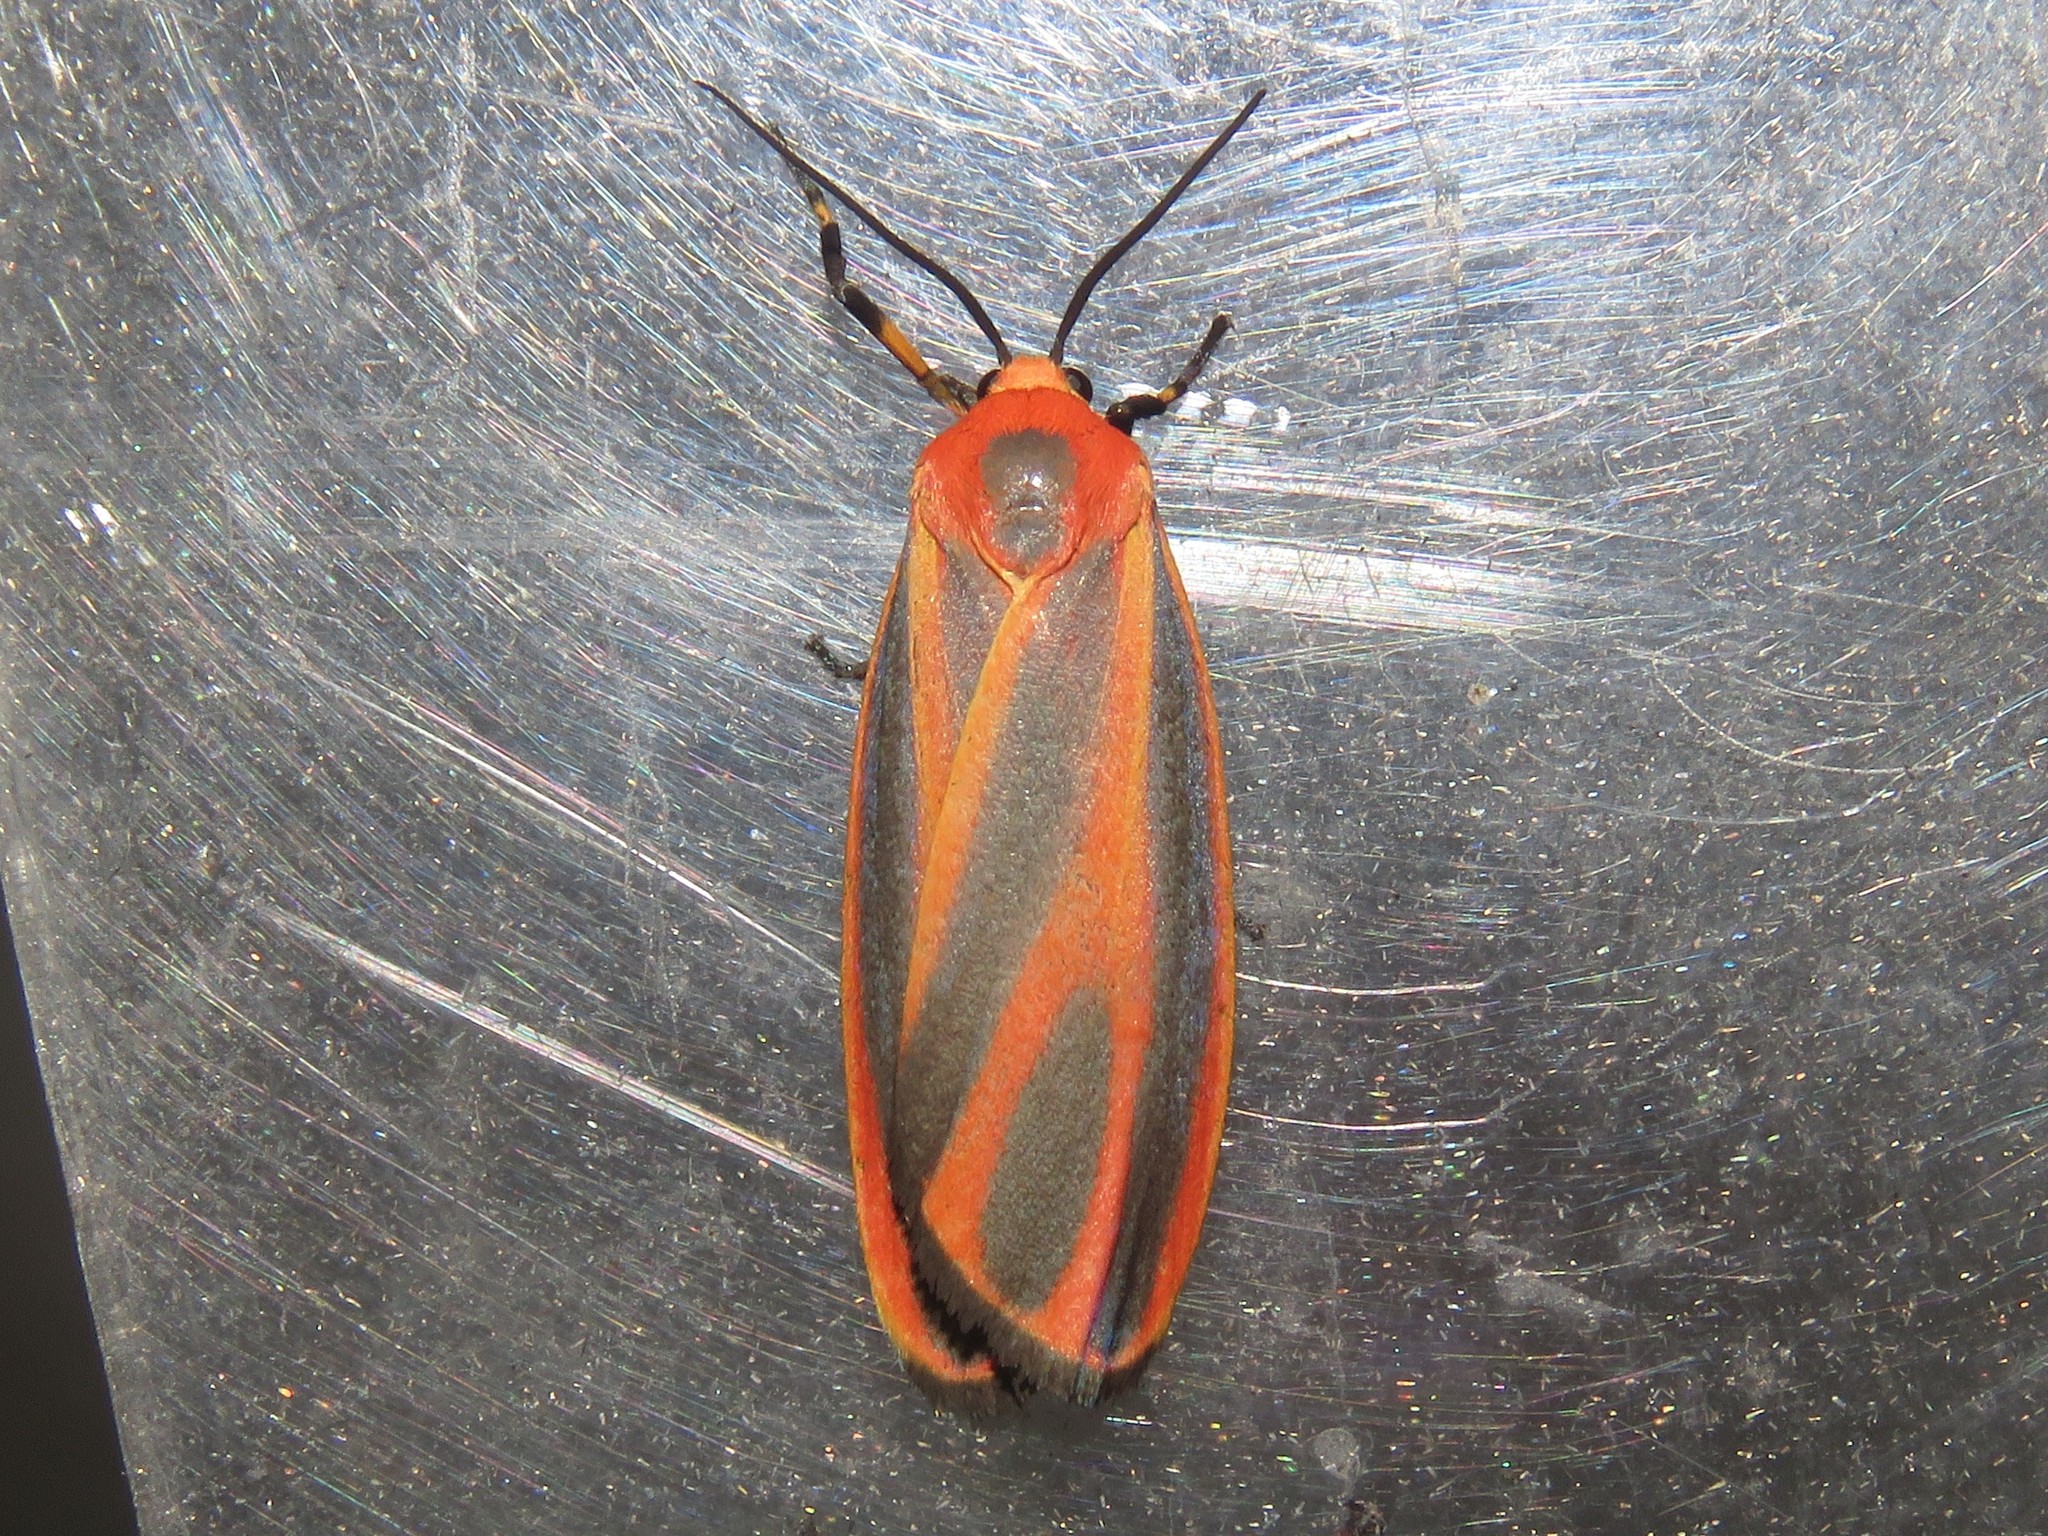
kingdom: Animalia
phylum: Arthropoda
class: Insecta
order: Lepidoptera
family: Erebidae
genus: Hypoprepia
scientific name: Hypoprepia miniata
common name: Scarlet-winged lichen moth
